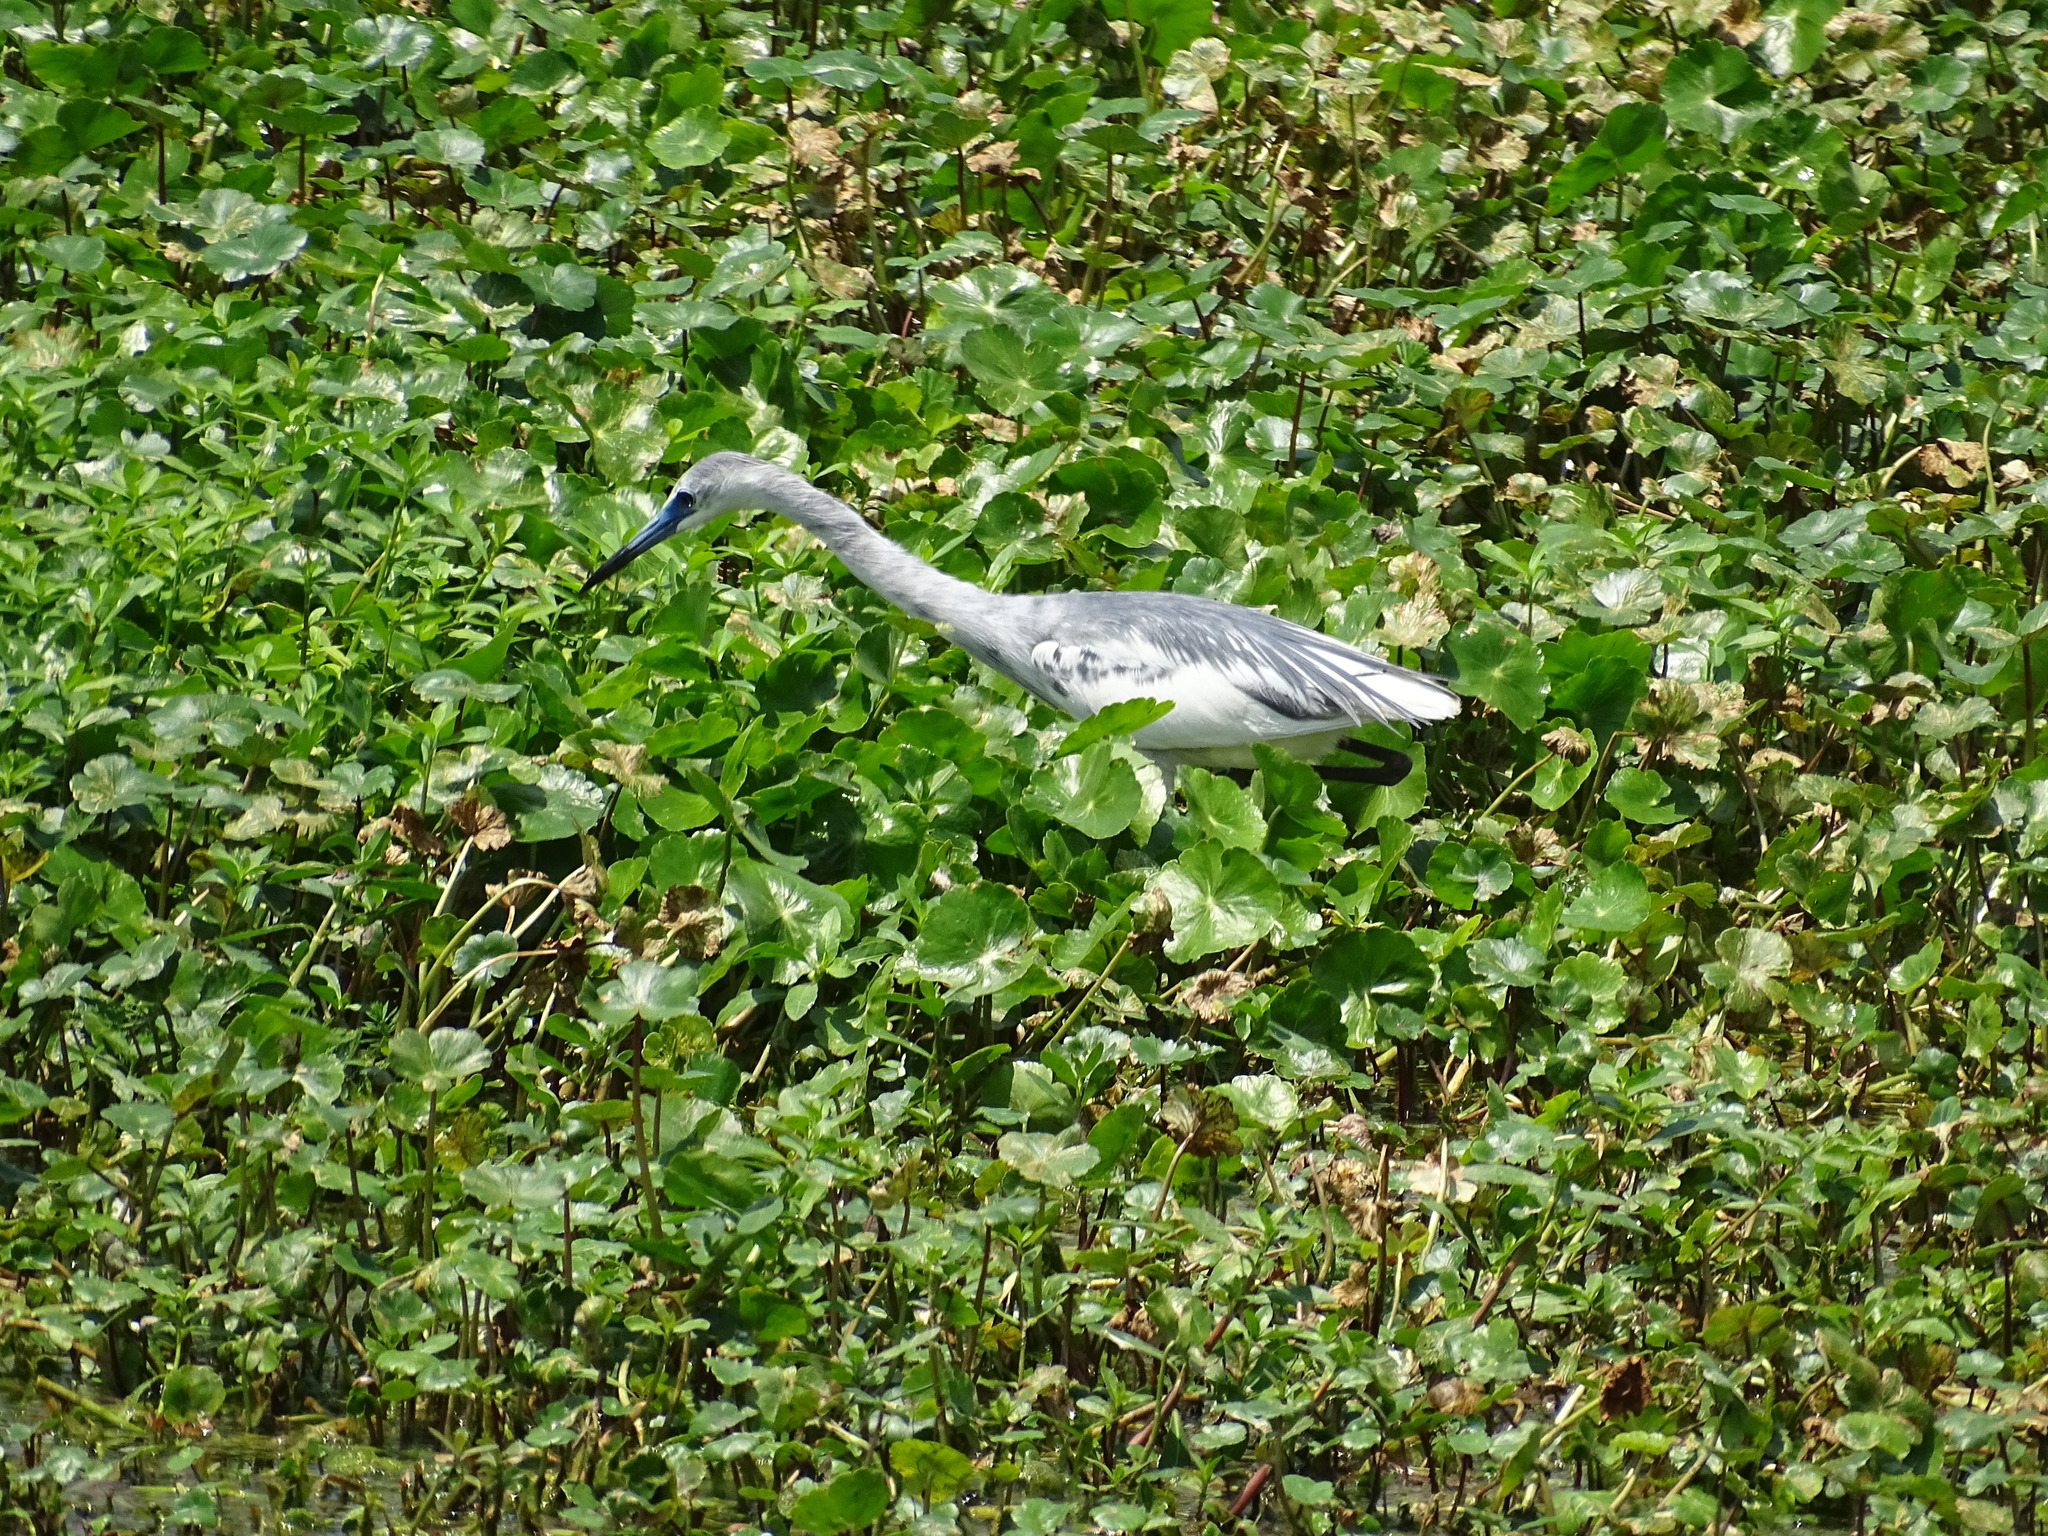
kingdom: Animalia
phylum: Chordata
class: Aves
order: Pelecaniformes
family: Ardeidae
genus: Egretta
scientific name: Egretta caerulea
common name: Little blue heron
